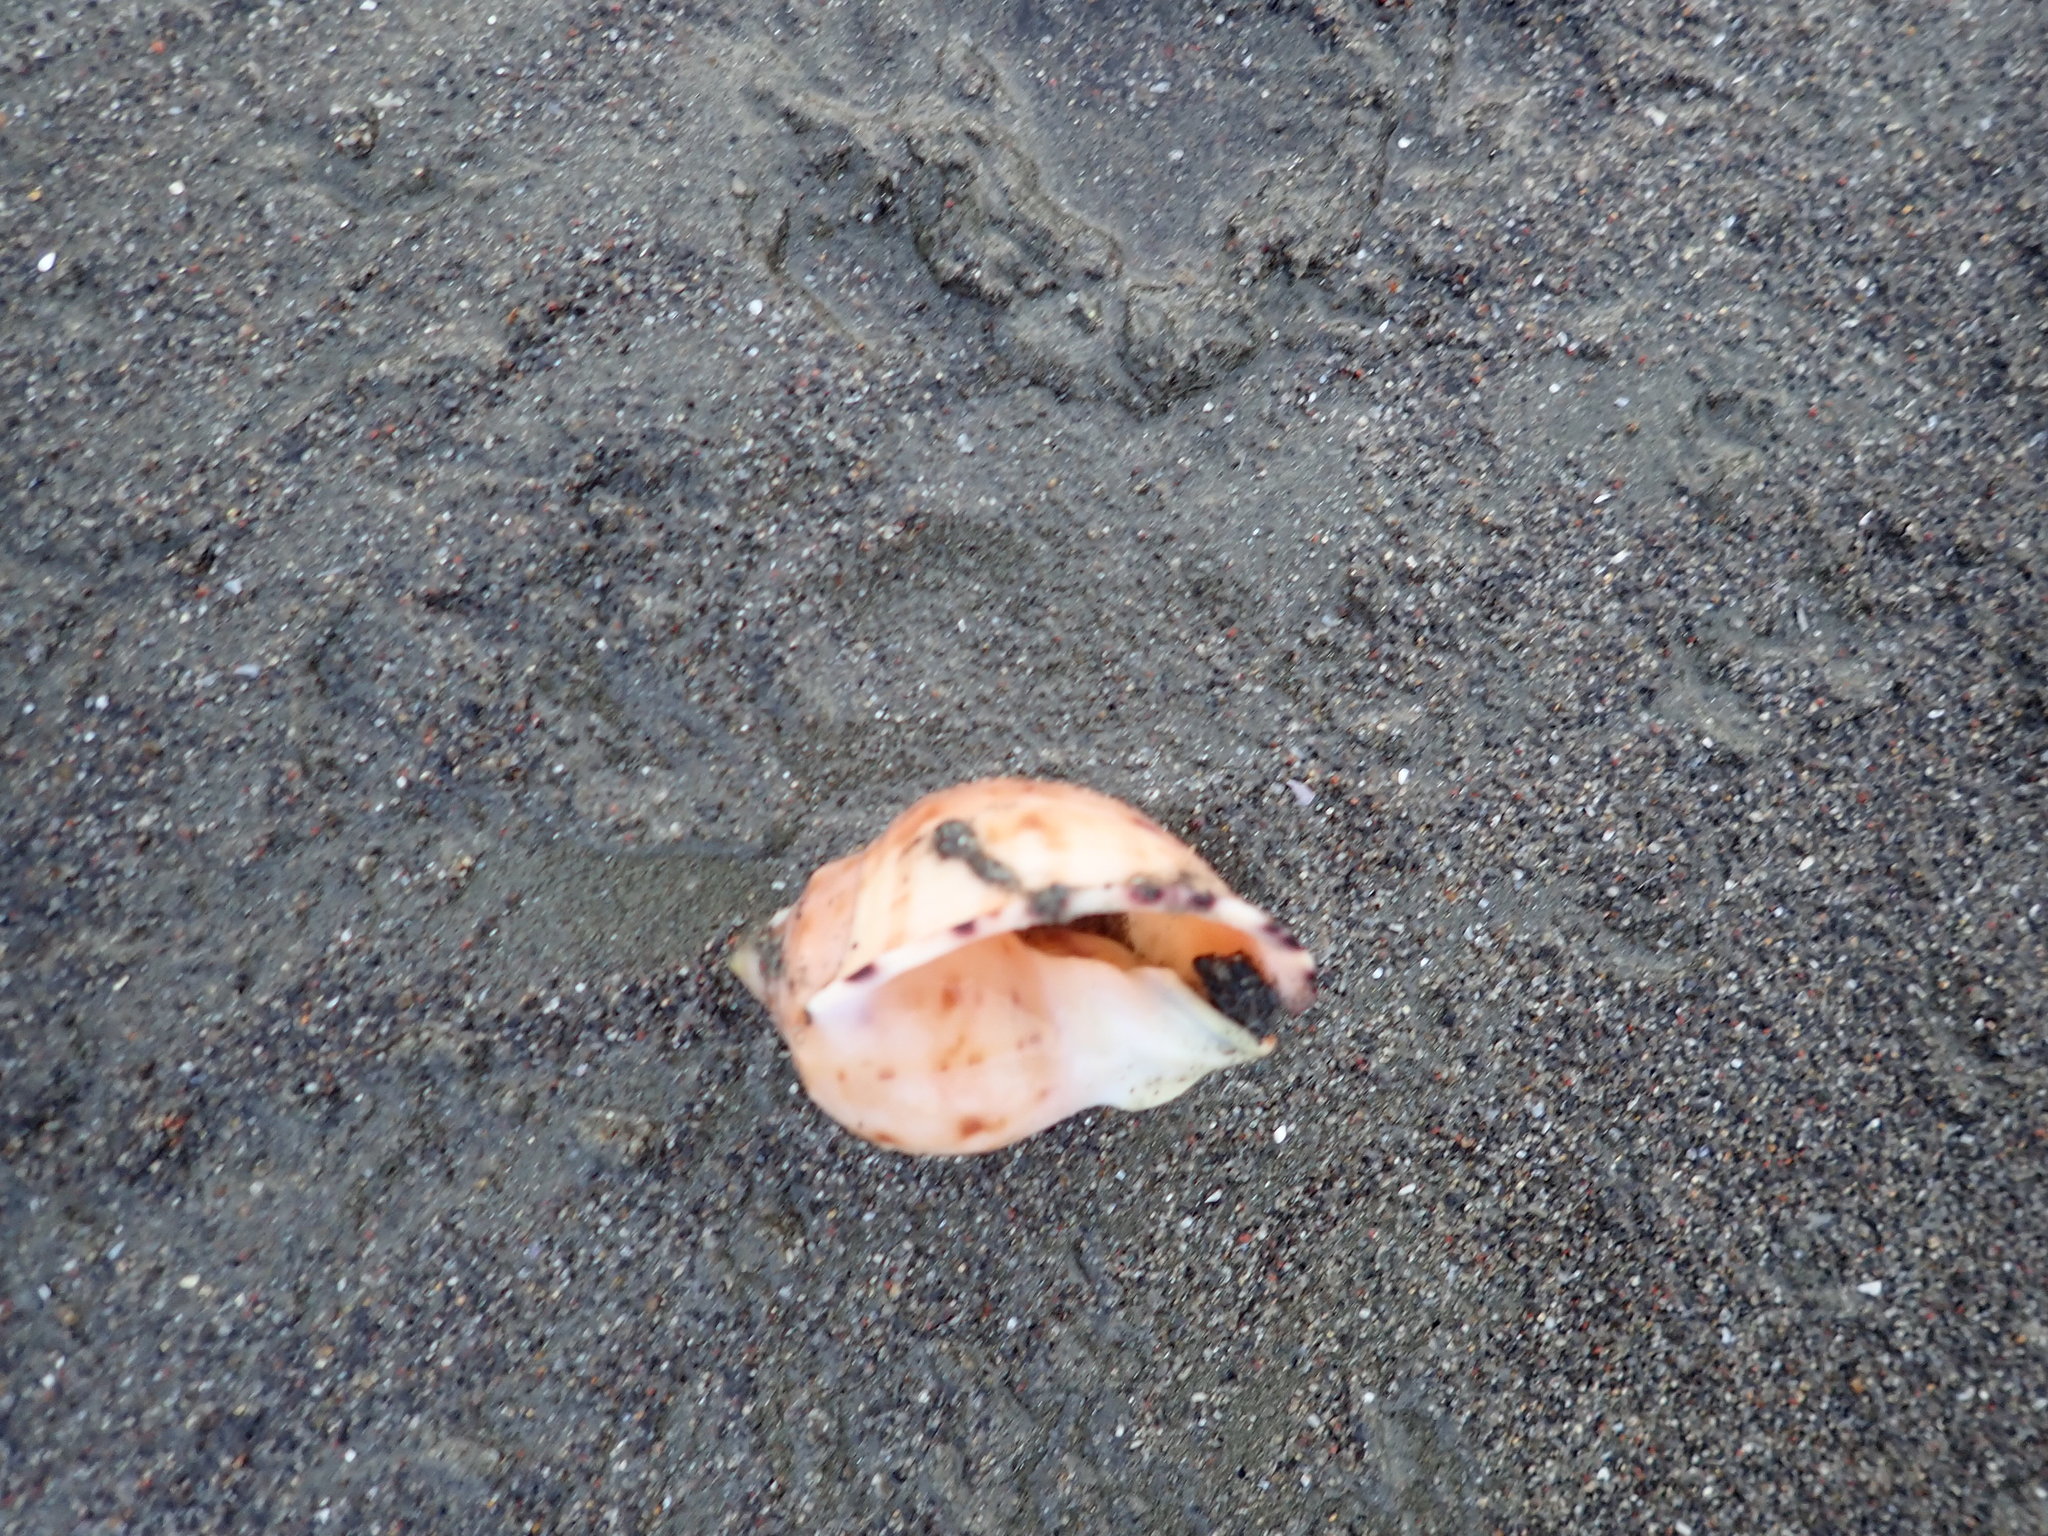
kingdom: Animalia
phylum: Mollusca
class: Gastropoda
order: Littorinimorpha
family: Cassidae
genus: Semicassis
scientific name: Semicassis pyrum
